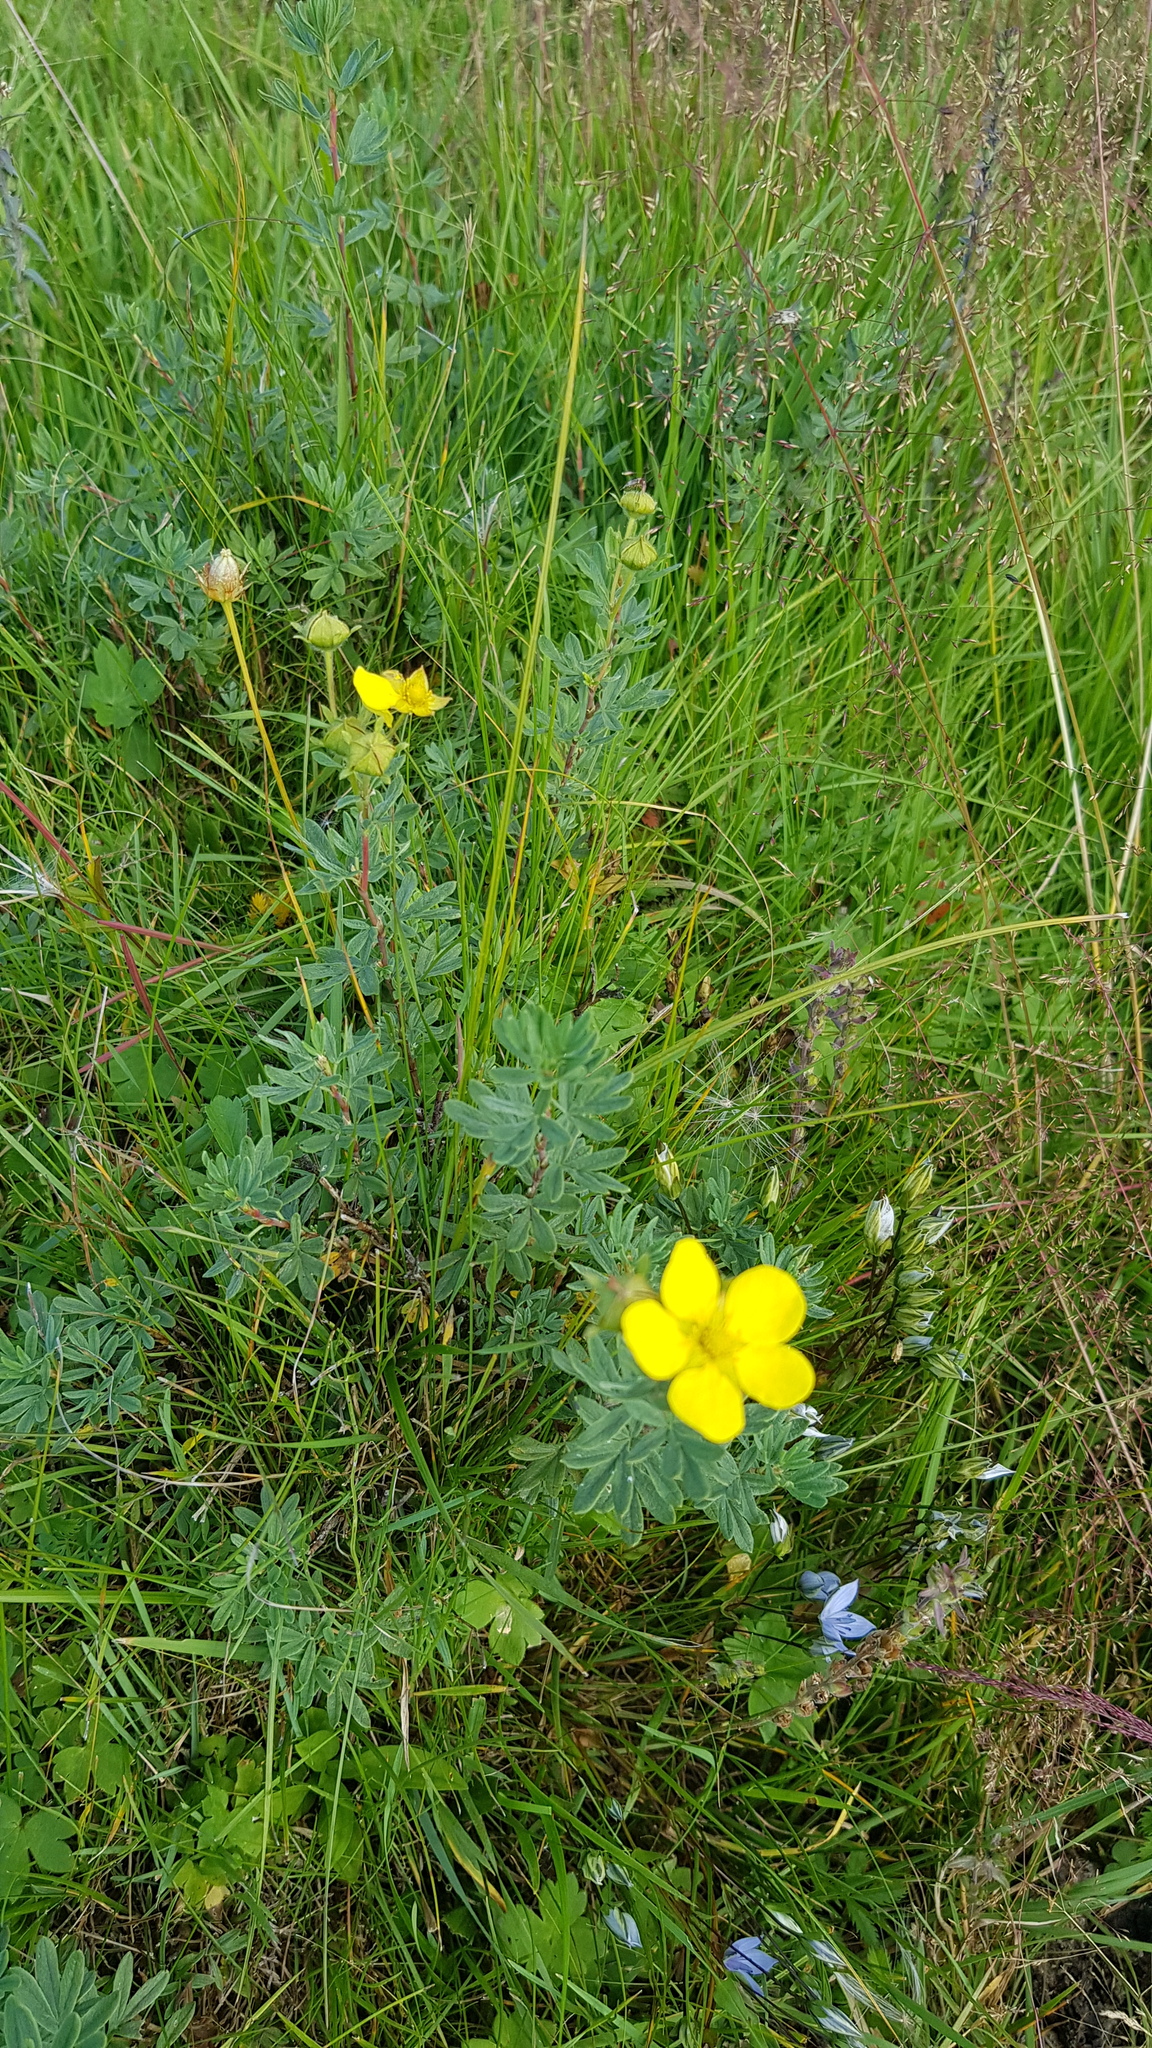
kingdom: Plantae
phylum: Tracheophyta
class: Magnoliopsida
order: Rosales
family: Rosaceae
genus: Dasiphora
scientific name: Dasiphora fruticosa
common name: Shrubby cinquefoil
